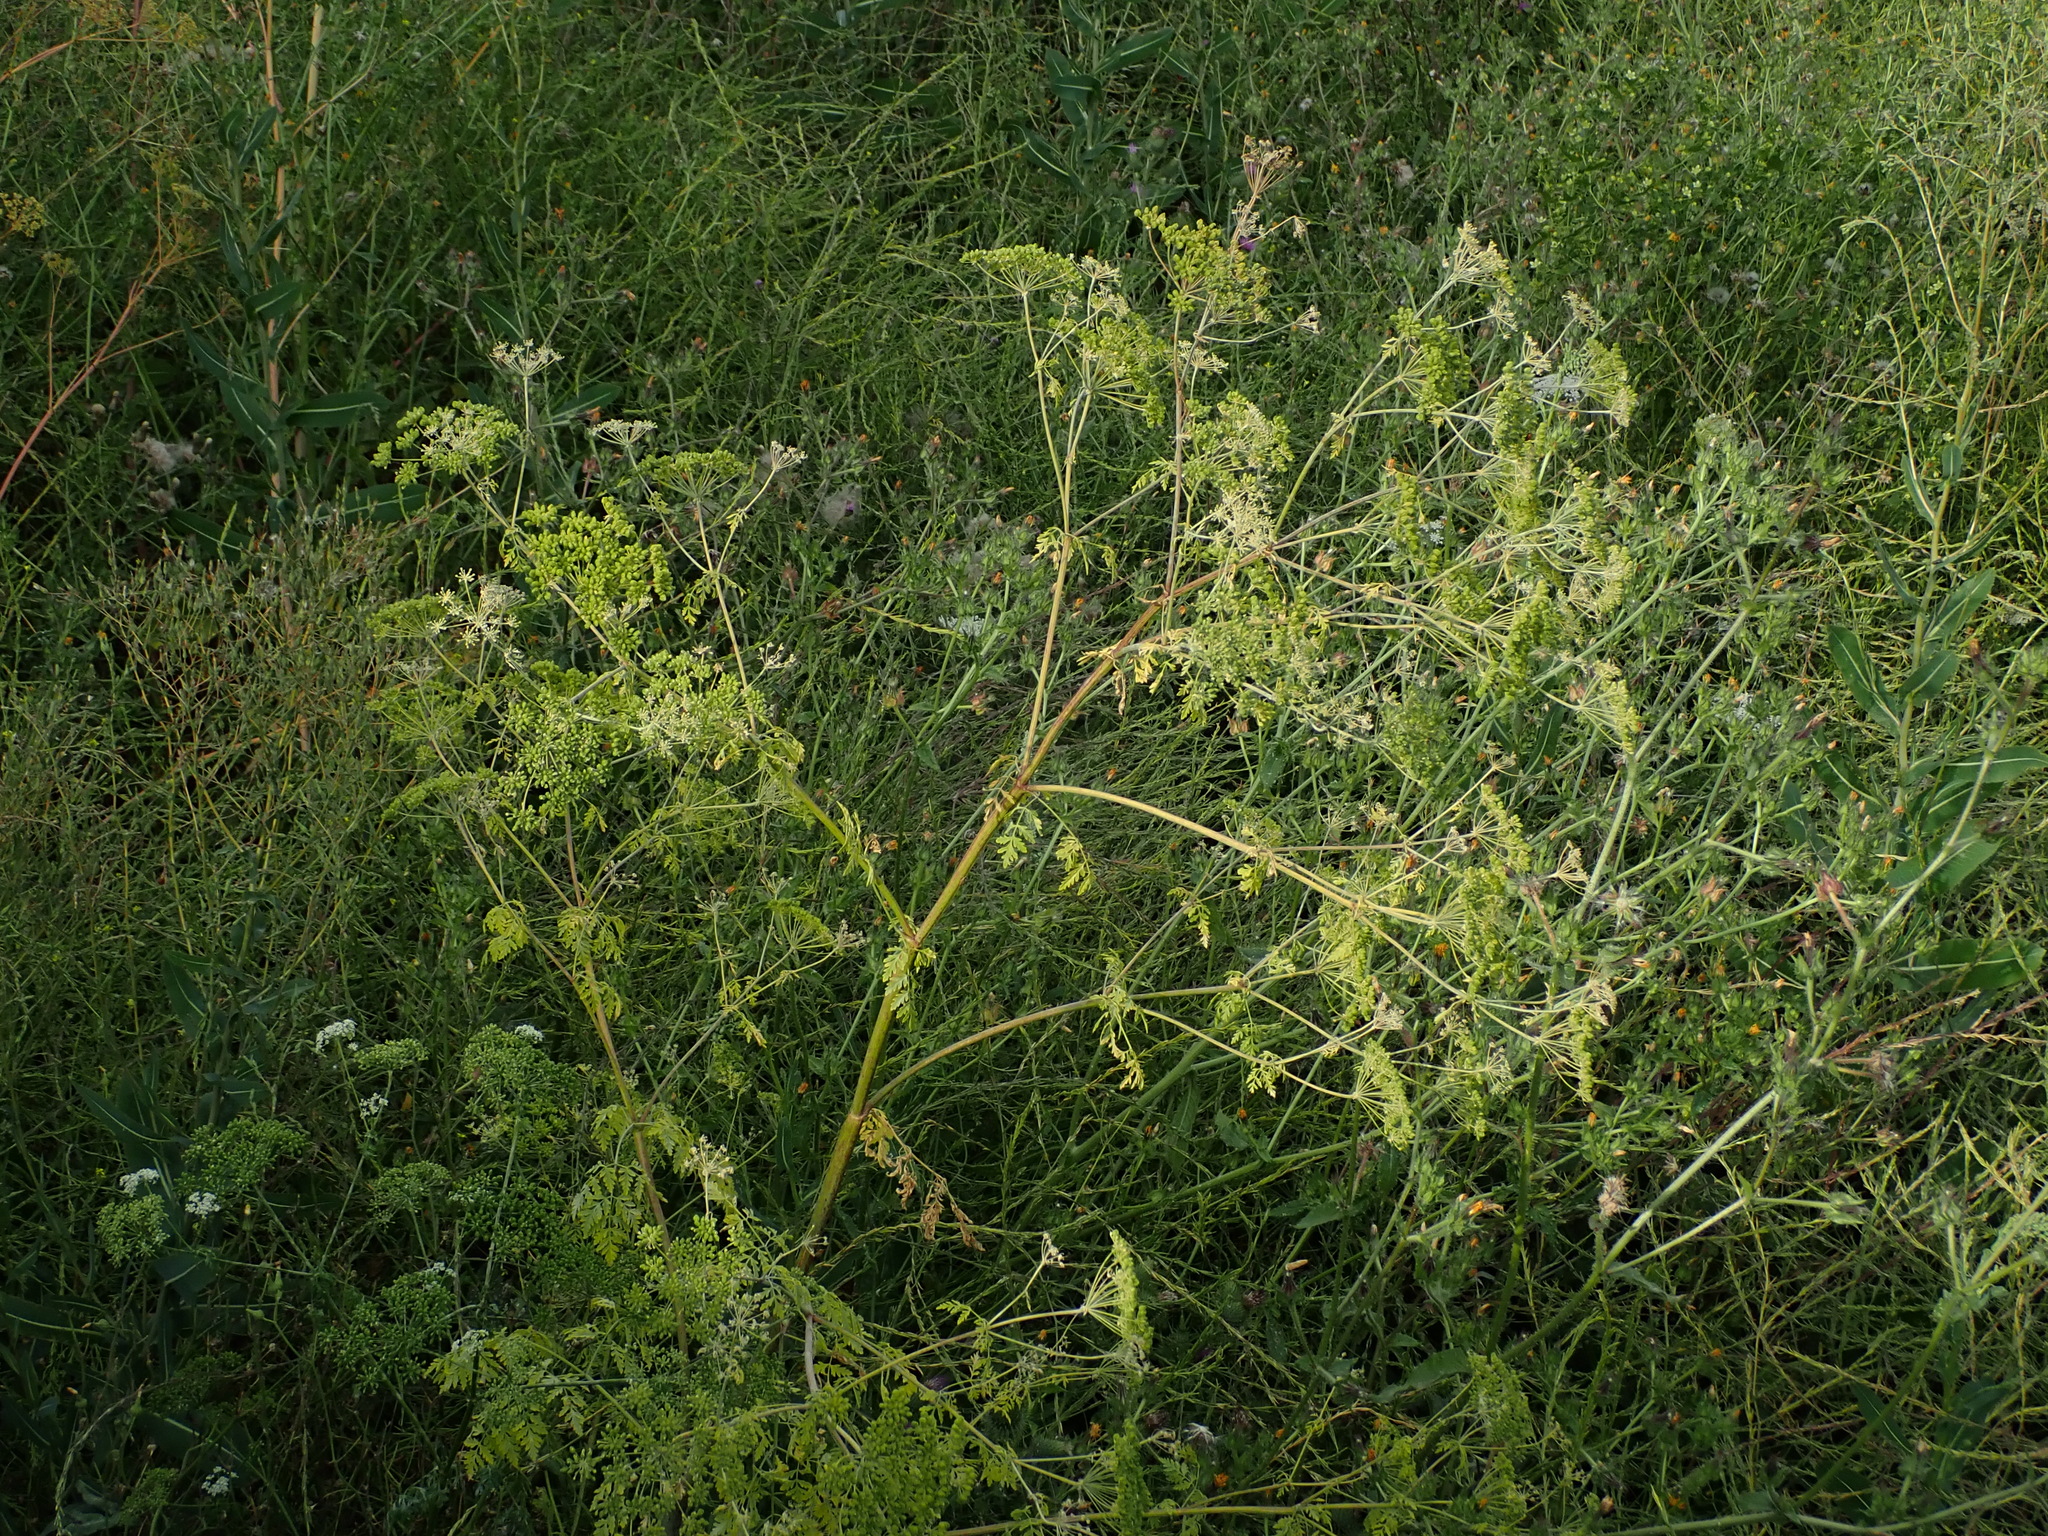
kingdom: Plantae
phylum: Tracheophyta
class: Magnoliopsida
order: Apiales
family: Apiaceae
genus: Conium
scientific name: Conium maculatum
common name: Hemlock
